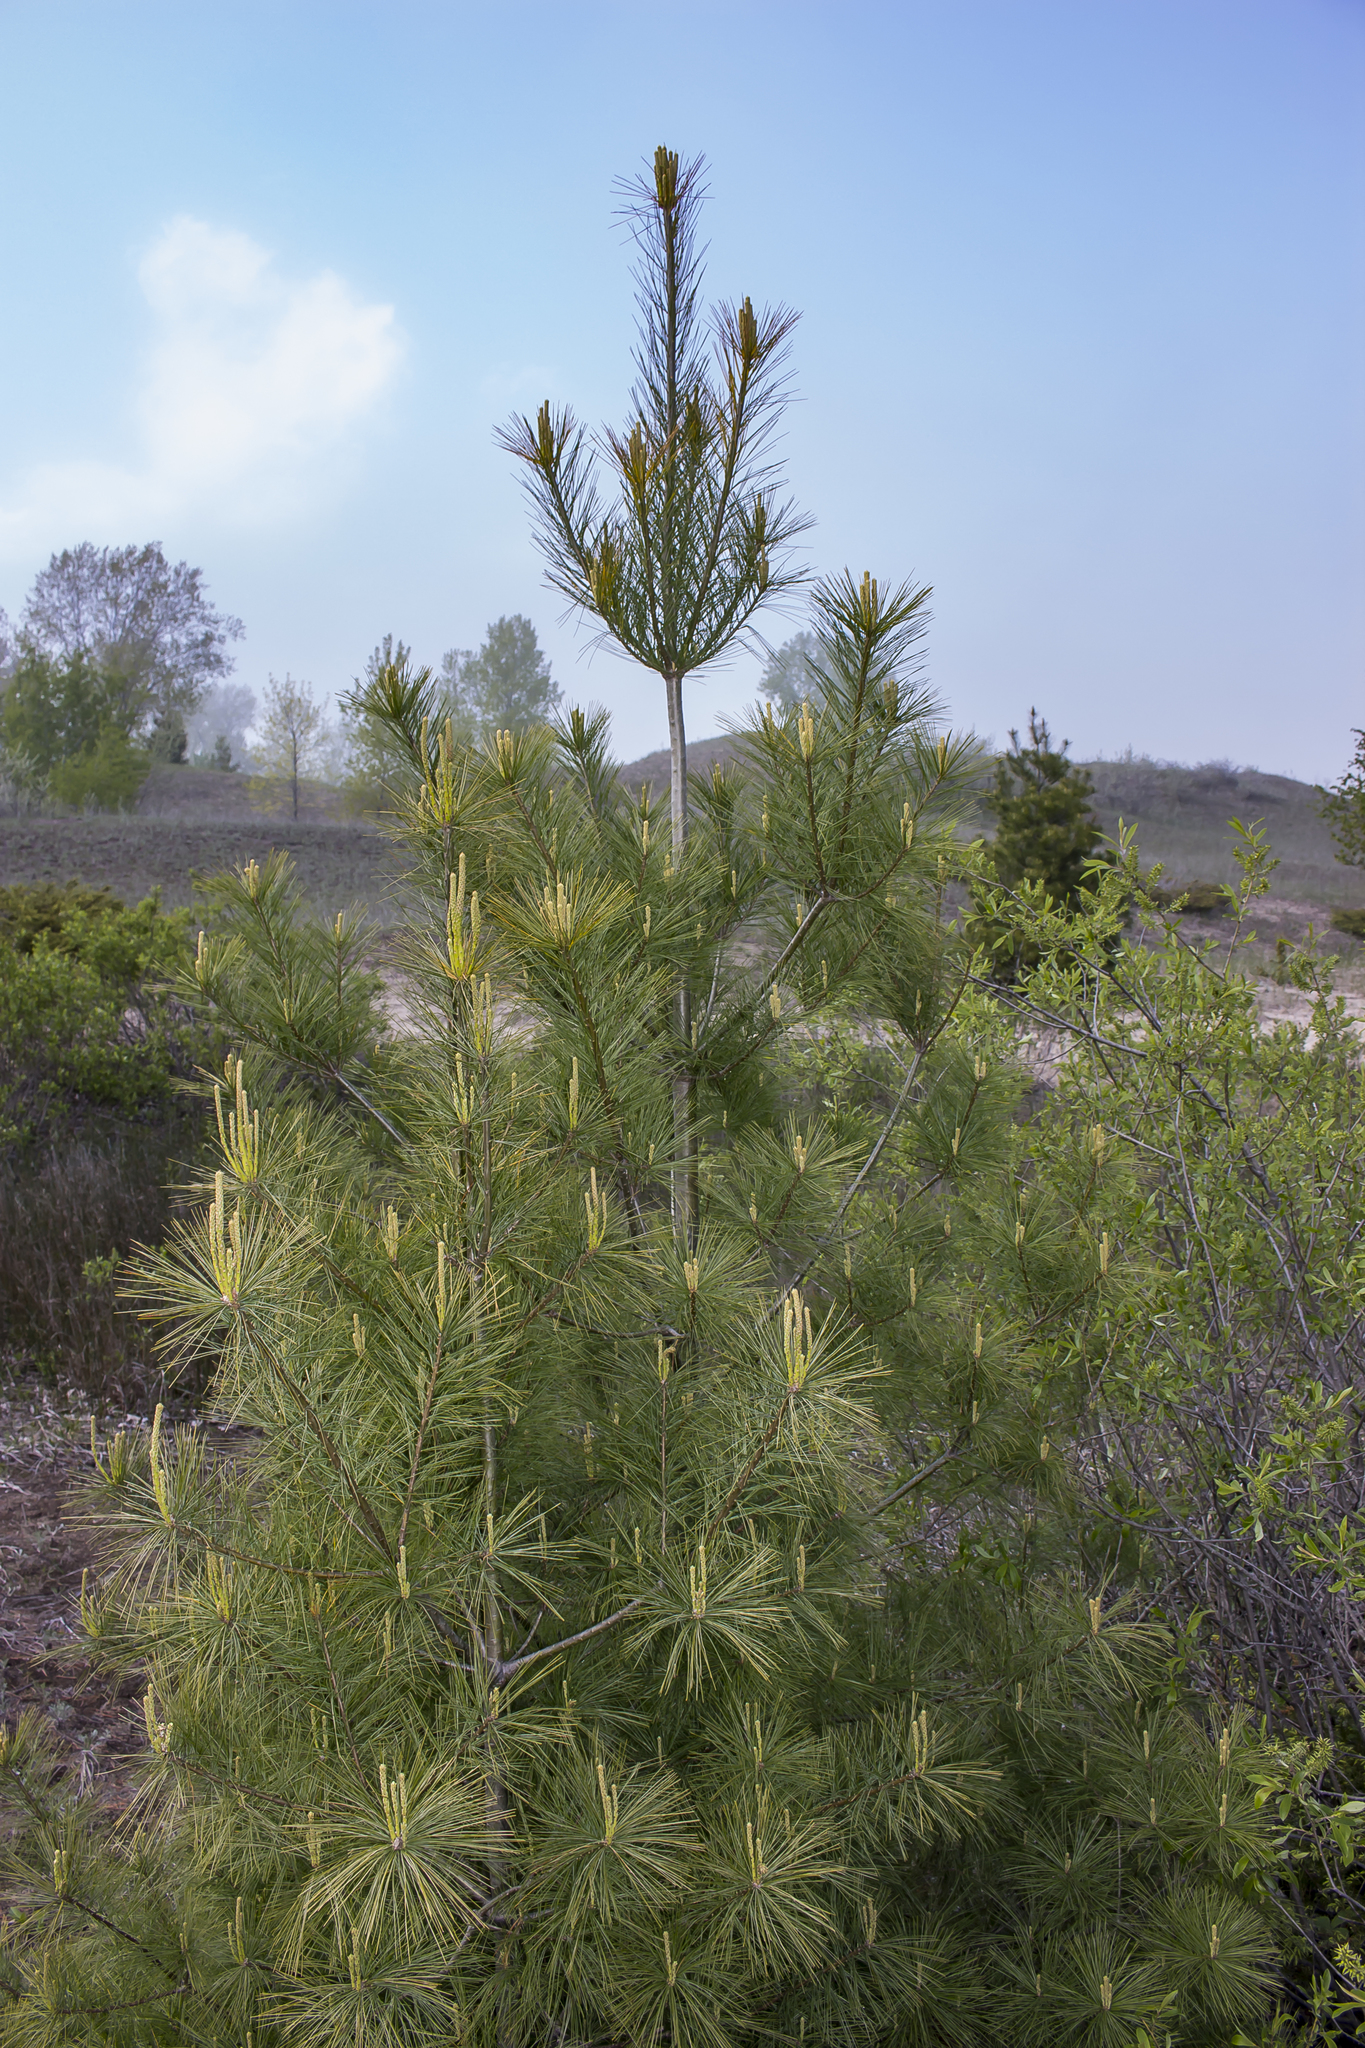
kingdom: Plantae
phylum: Tracheophyta
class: Pinopsida
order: Pinales
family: Pinaceae
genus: Pinus
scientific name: Pinus strobus
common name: Weymouth pine
